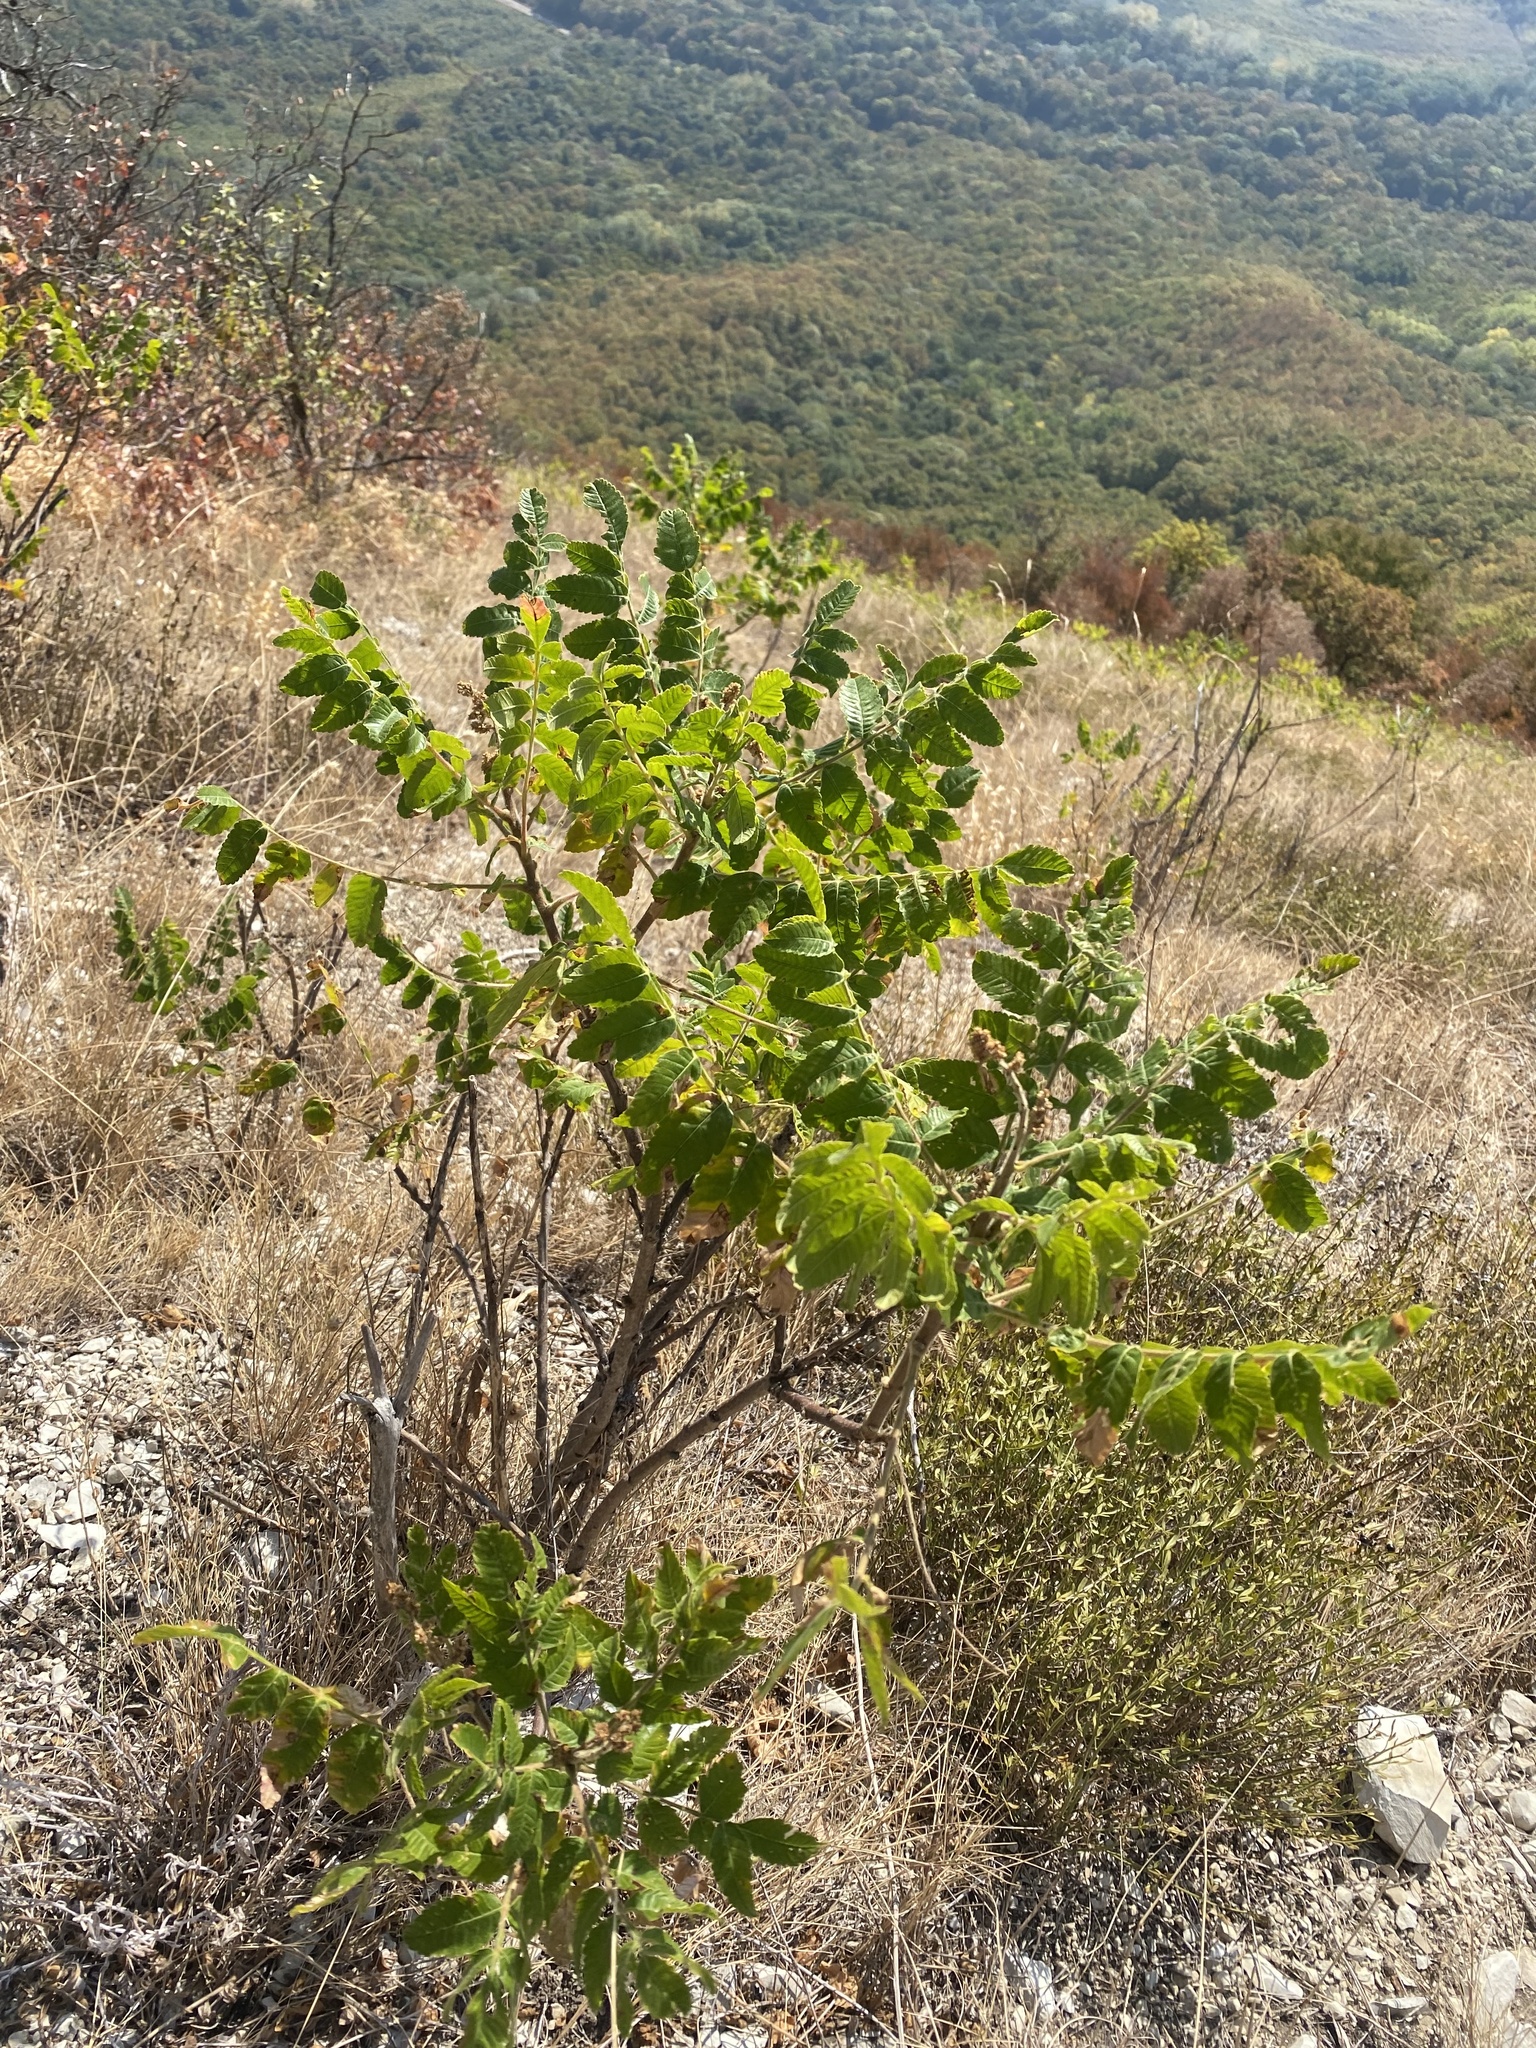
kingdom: Plantae
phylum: Tracheophyta
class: Magnoliopsida
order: Sapindales
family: Anacardiaceae
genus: Rhus
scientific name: Rhus coriaria
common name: Tanner's sumach
